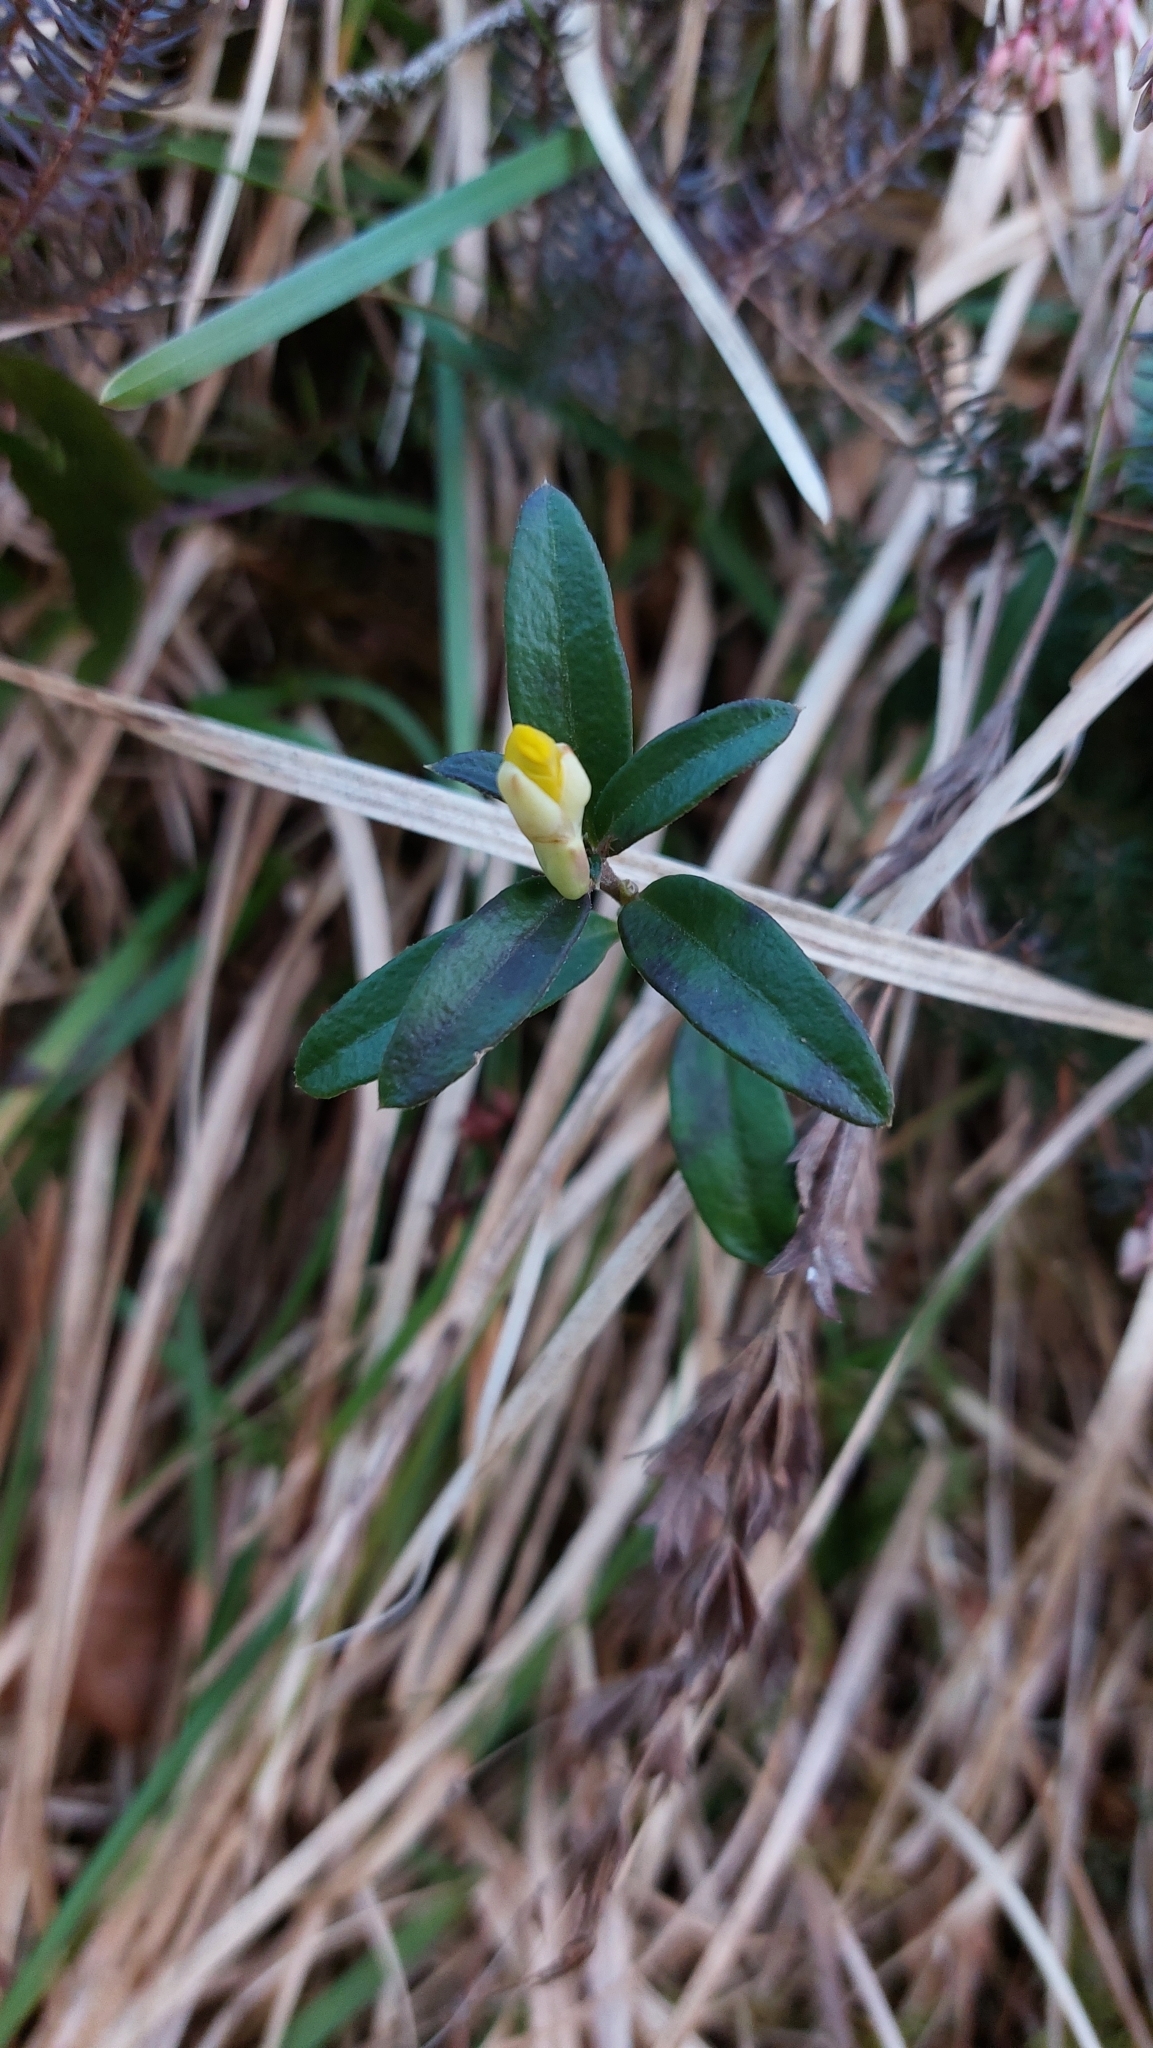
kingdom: Plantae
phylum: Tracheophyta
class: Magnoliopsida
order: Fabales
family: Polygalaceae
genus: Polygaloides
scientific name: Polygaloides chamaebuxus
